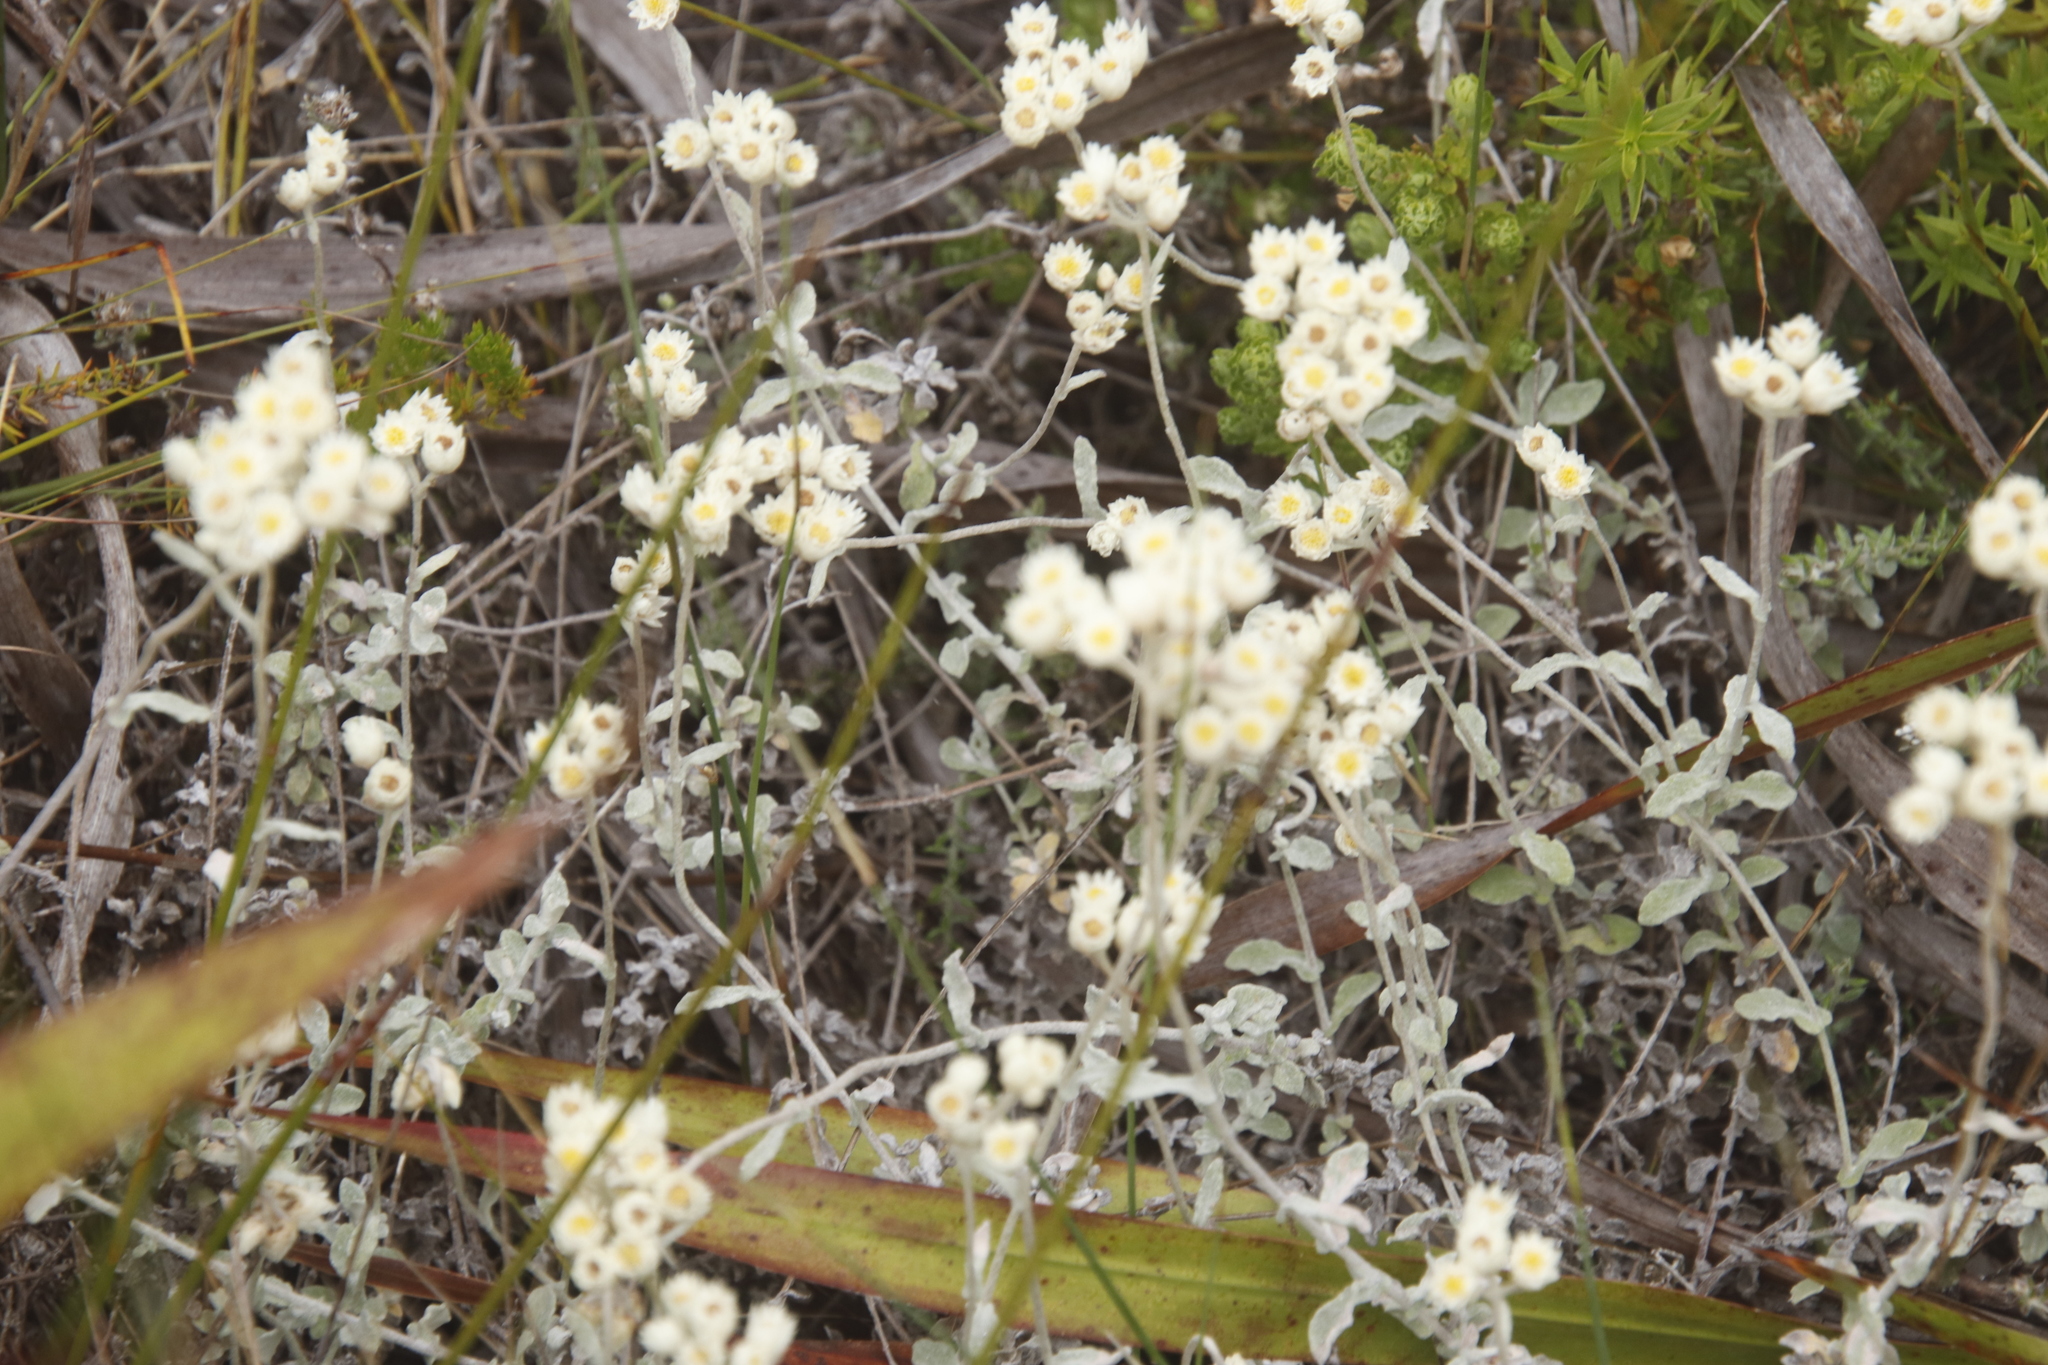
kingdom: Plantae
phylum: Tracheophyta
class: Magnoliopsida
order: Asterales
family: Asteraceae
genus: Helichrysum
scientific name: Helichrysum pandurifolium
